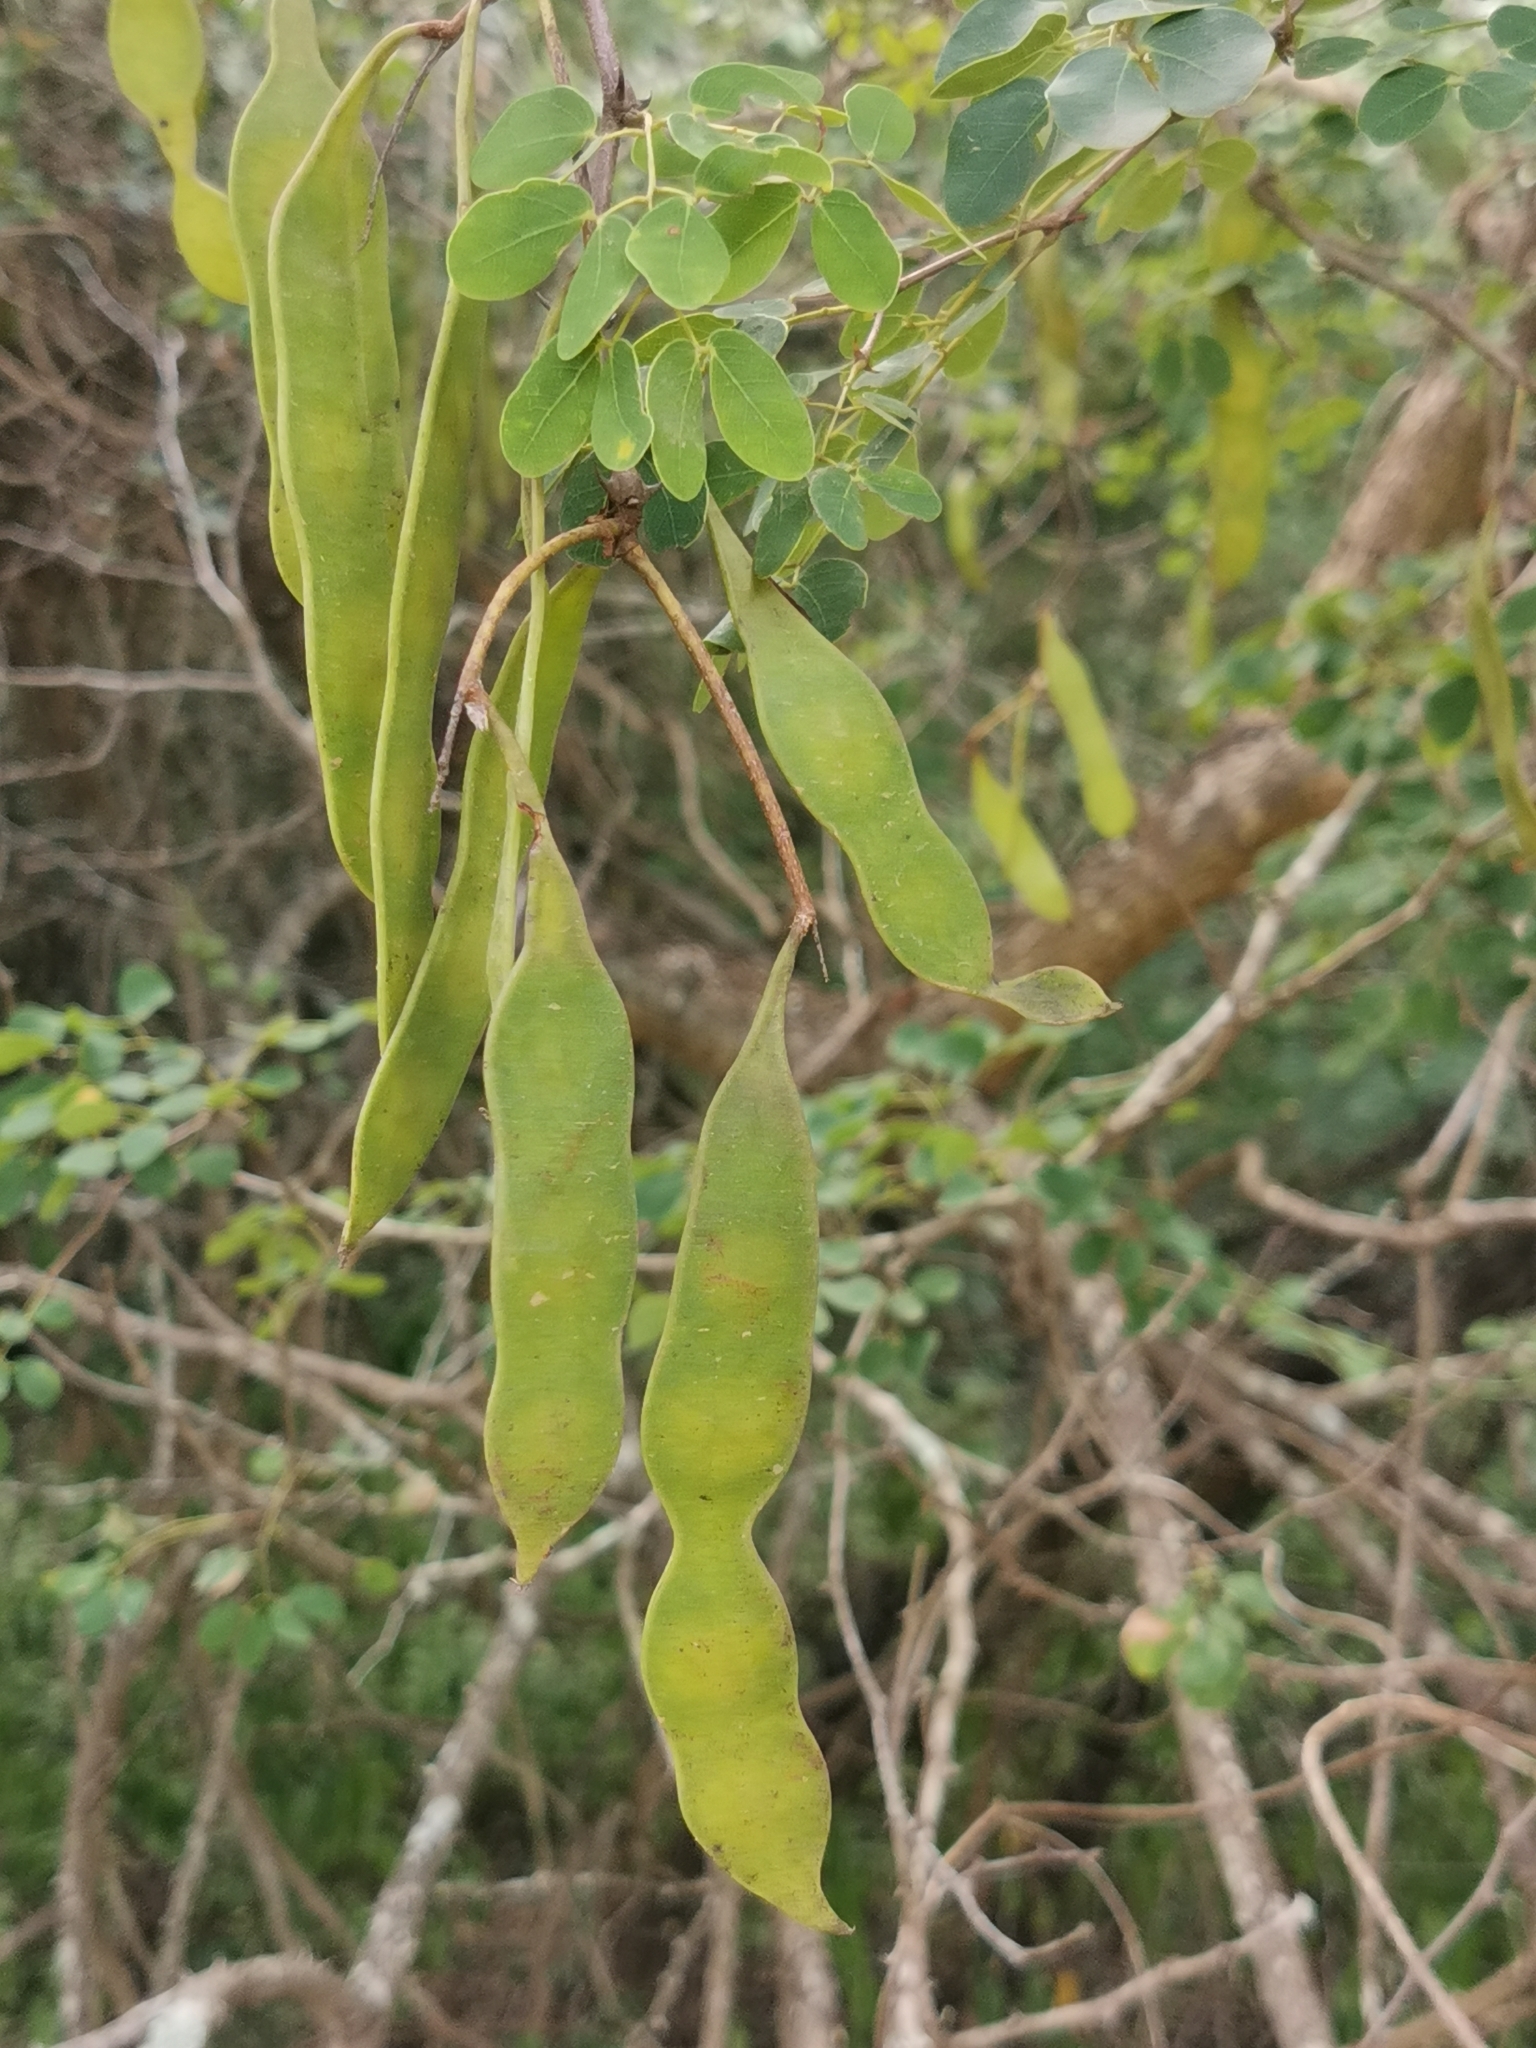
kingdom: Plantae
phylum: Tracheophyta
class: Magnoliopsida
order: Fabales
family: Fabaceae
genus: Senegalia
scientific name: Senegalia nigrescens
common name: Knobthorn
